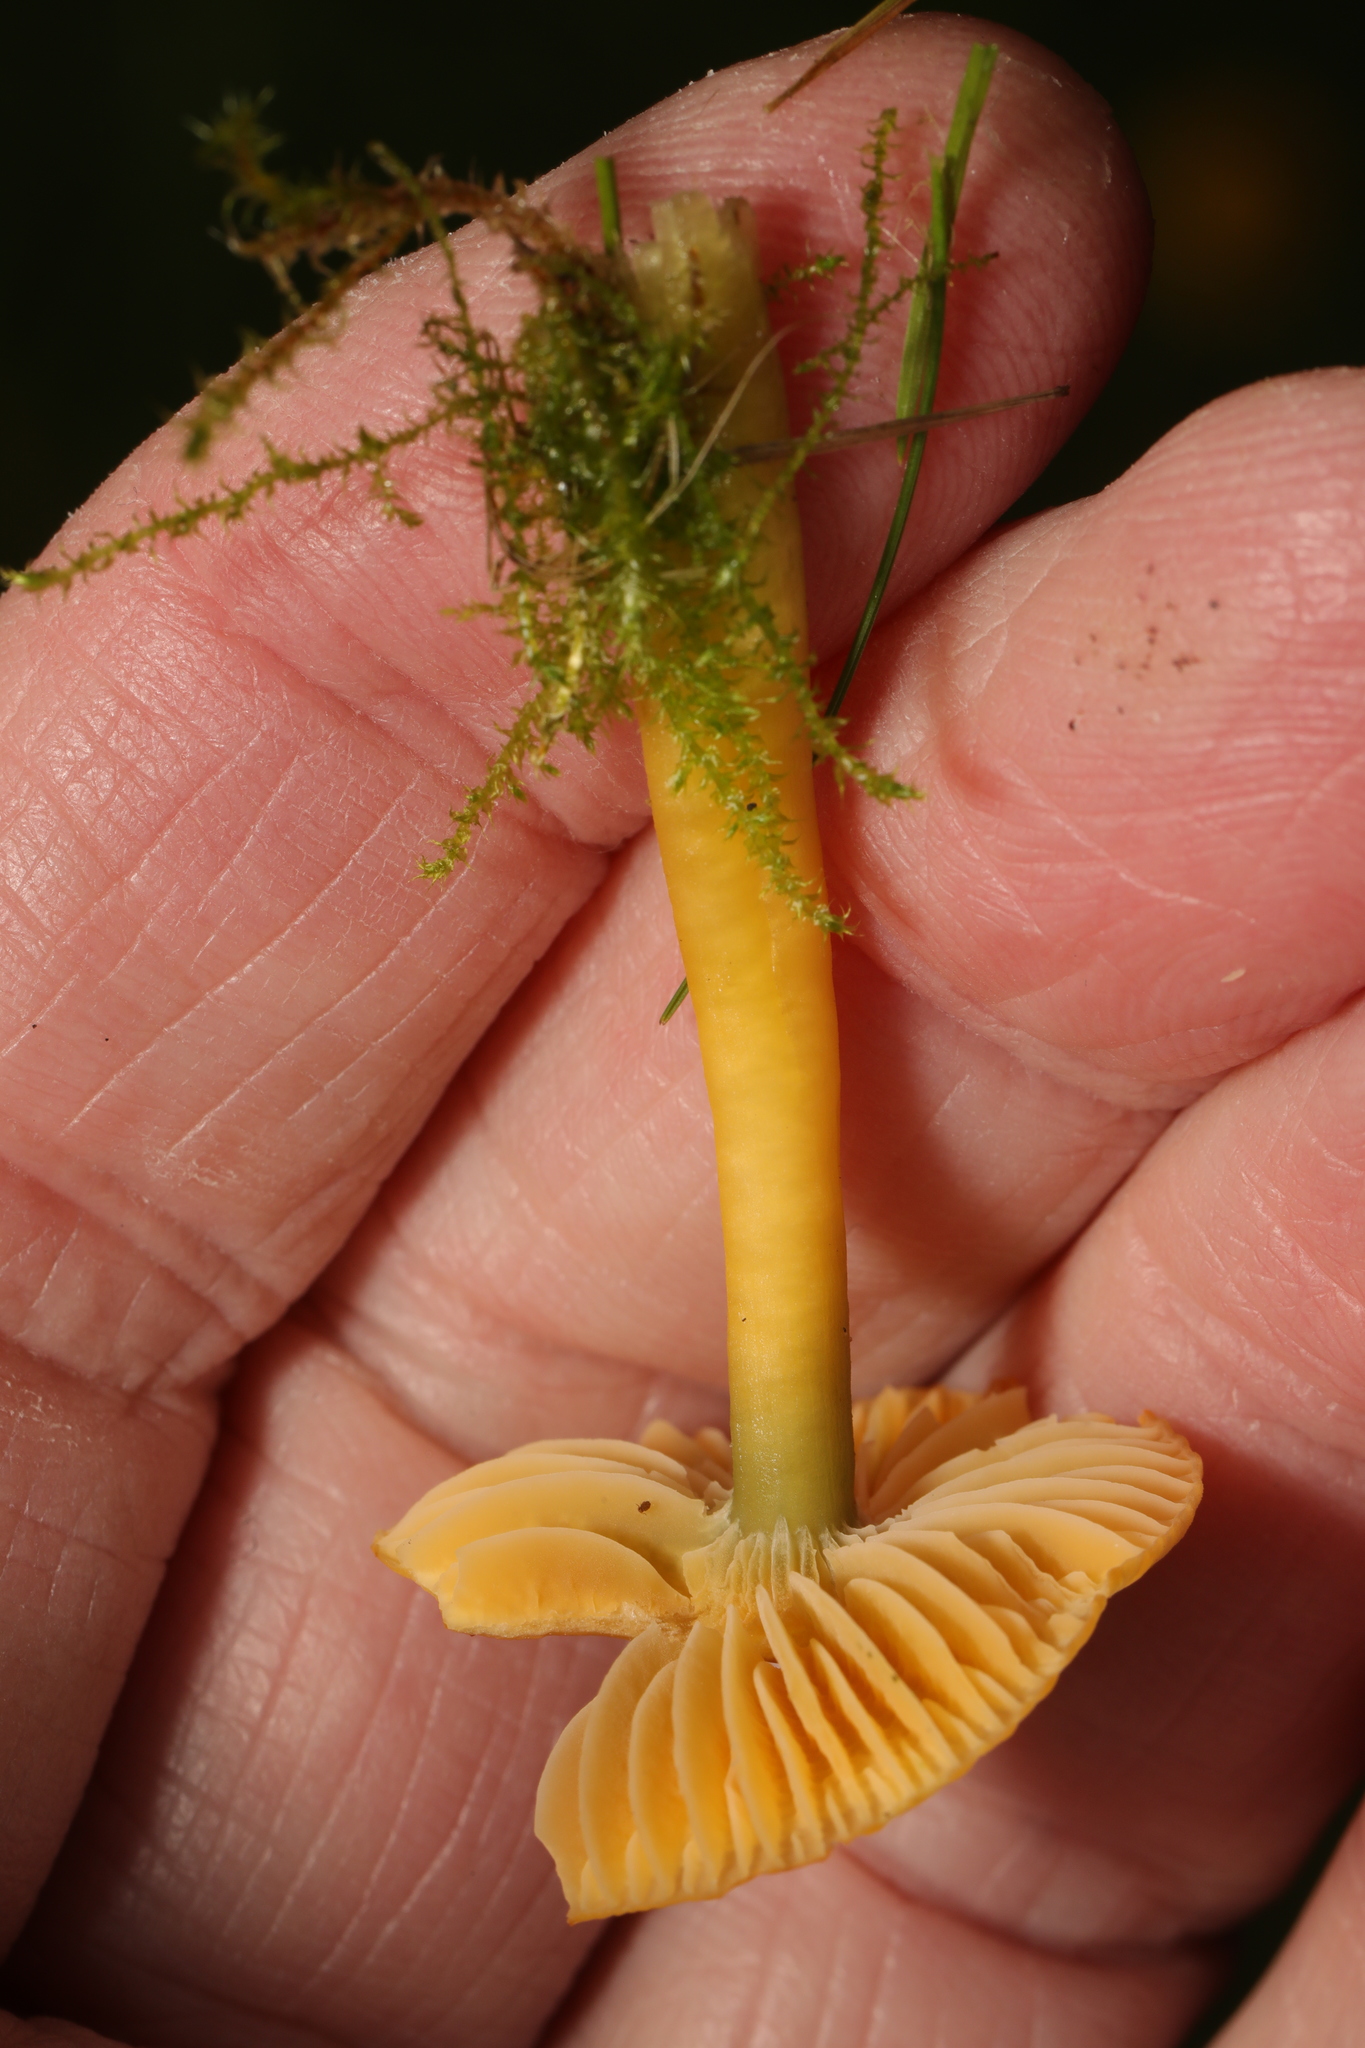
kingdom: Fungi
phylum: Basidiomycota
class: Agaricomycetes
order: Agaricales
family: Hygrophoraceae
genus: Gliophorus
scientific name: Gliophorus psittacinus
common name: Parrot wax-cap
